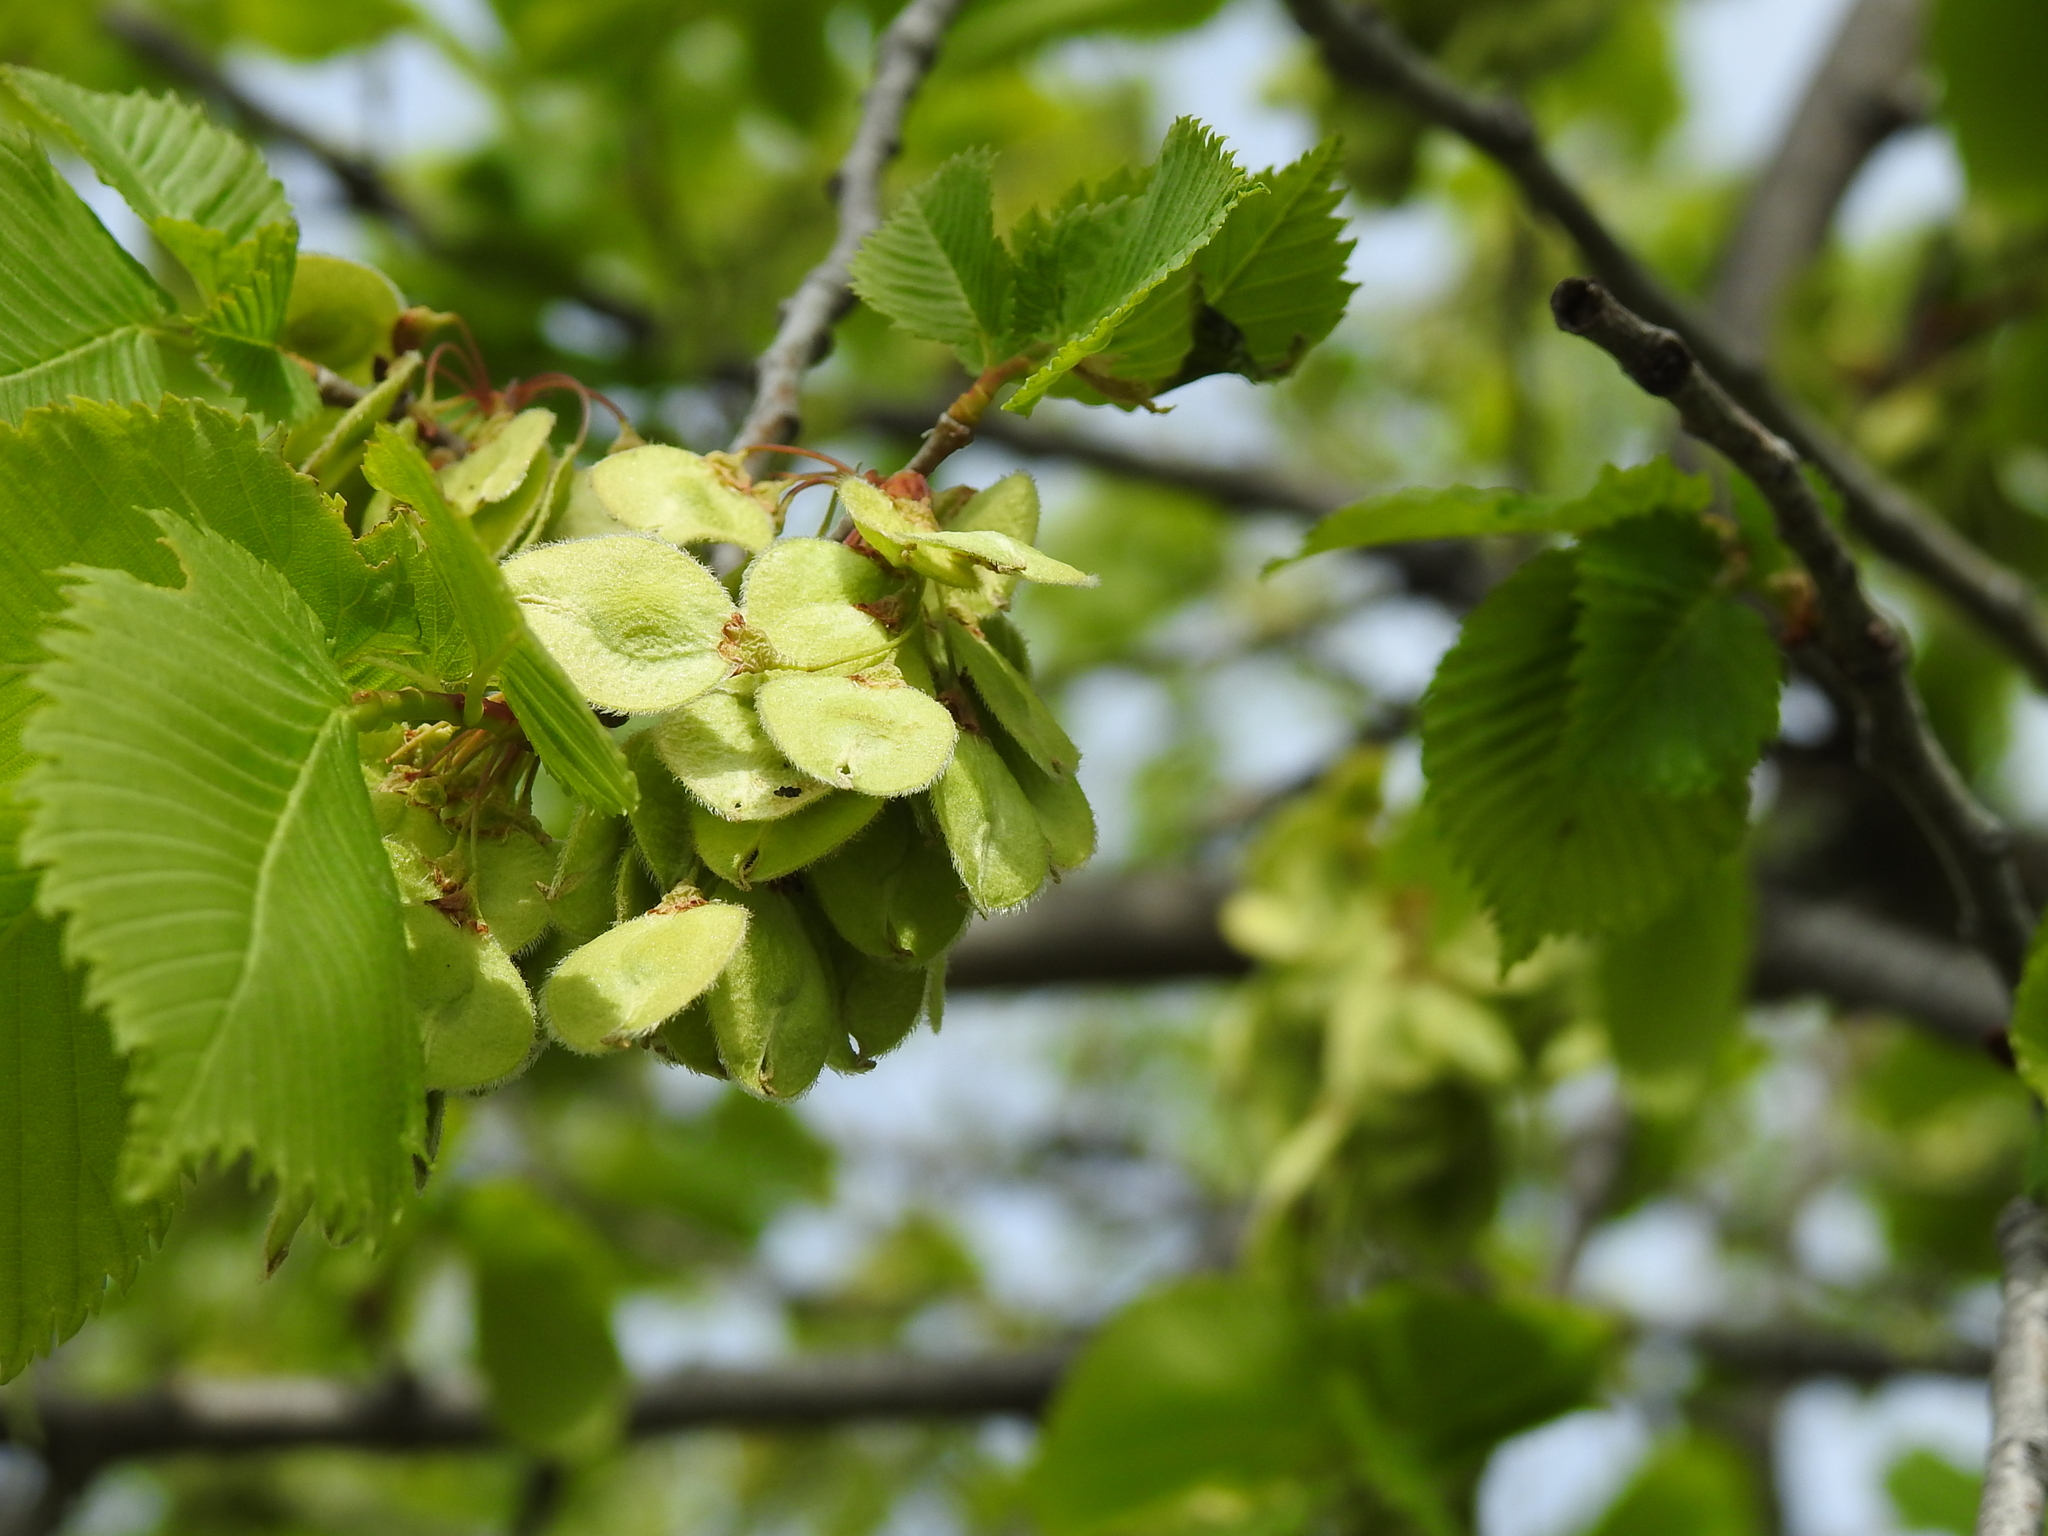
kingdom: Plantae
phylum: Tracheophyta
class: Magnoliopsida
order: Rosales
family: Ulmaceae
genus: Ulmus
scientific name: Ulmus laevis
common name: European white-elm
